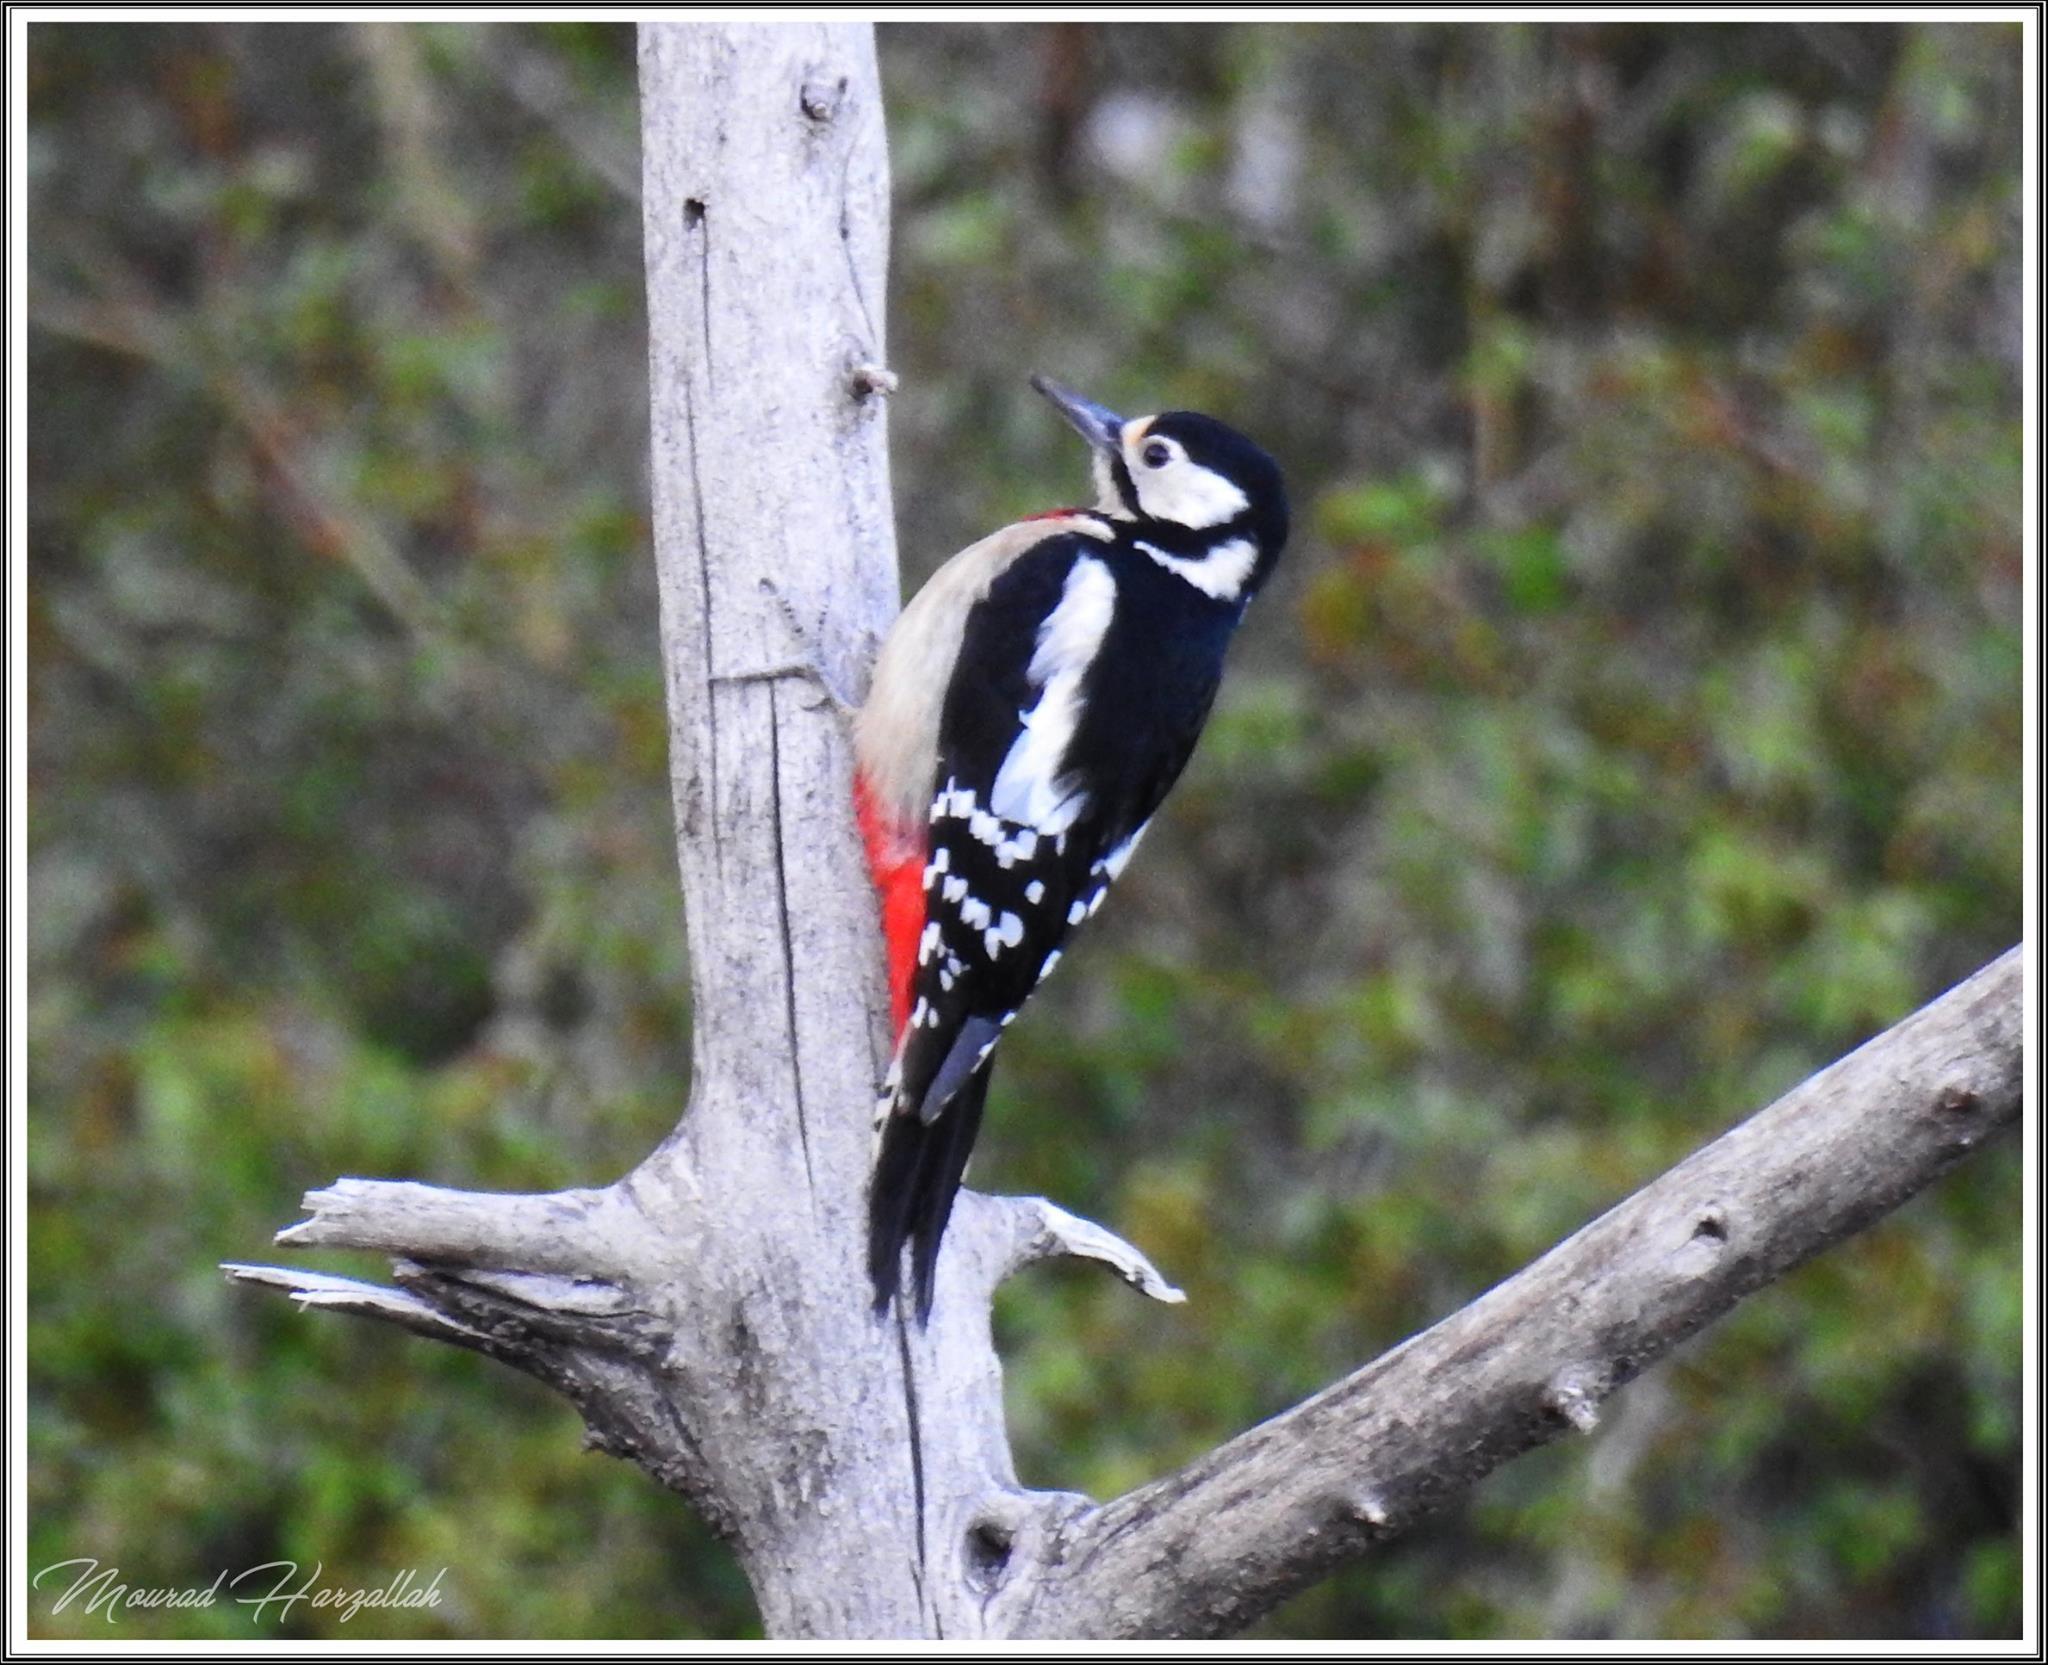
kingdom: Animalia
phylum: Chordata
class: Aves
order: Piciformes
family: Picidae
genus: Dendrocopos
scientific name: Dendrocopos major
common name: Great spotted woodpecker
